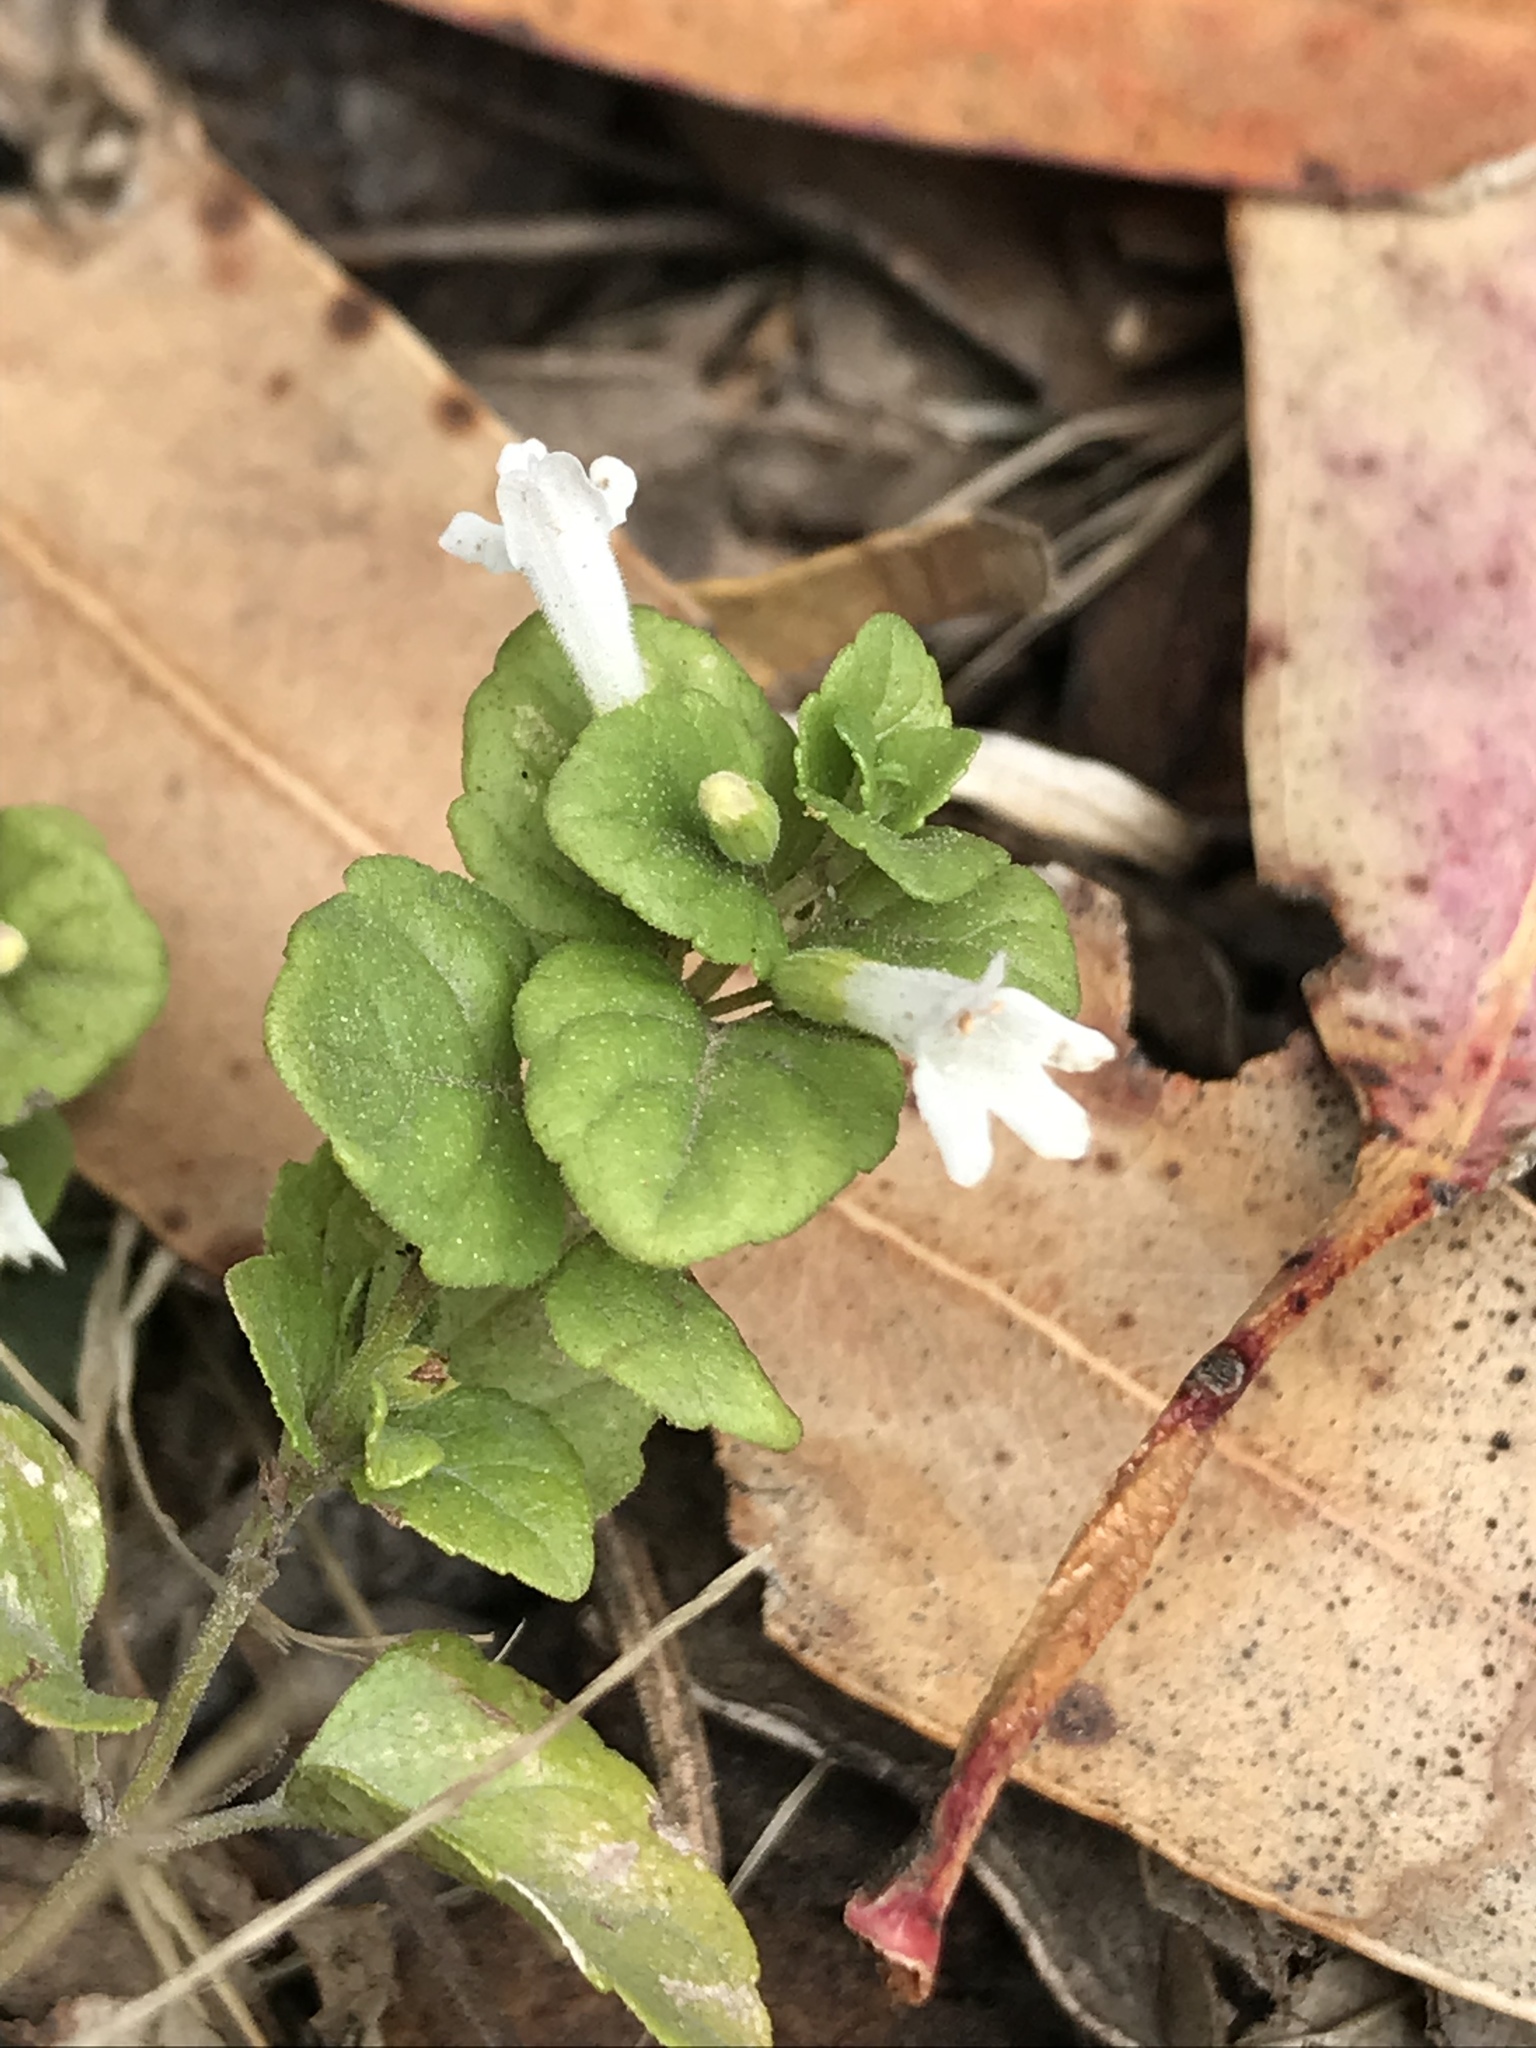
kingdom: Plantae
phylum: Tracheophyta
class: Magnoliopsida
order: Lamiales
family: Lamiaceae
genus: Micromeria
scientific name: Micromeria douglasii
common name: Yerba buena
